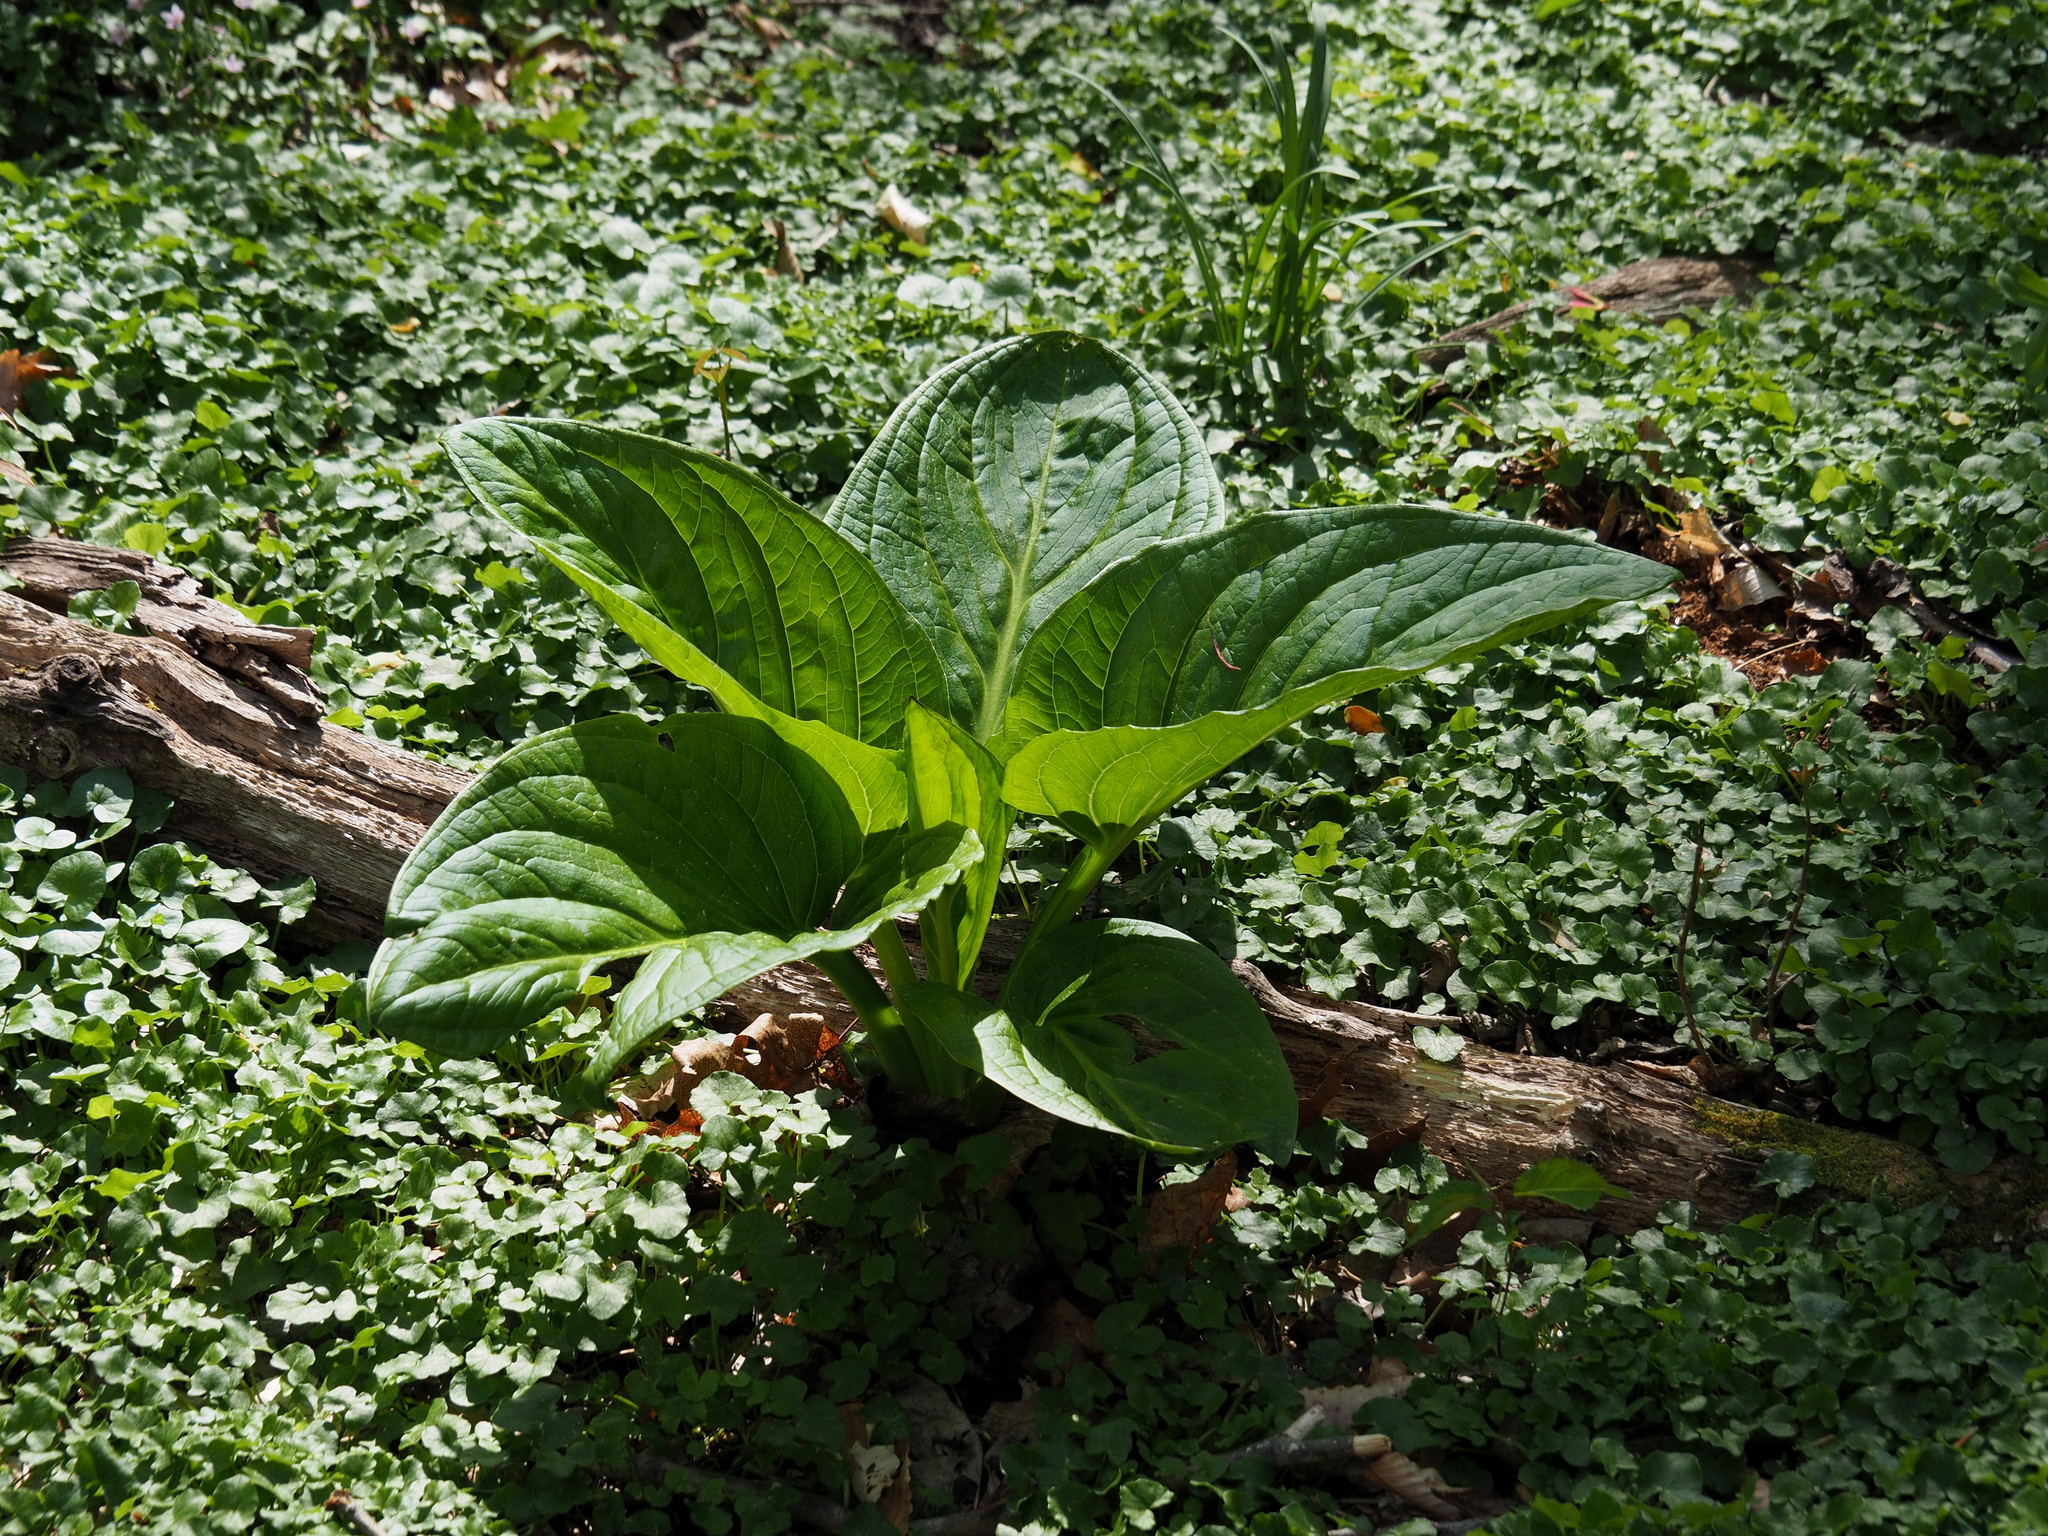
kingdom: Plantae
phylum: Tracheophyta
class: Liliopsida
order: Alismatales
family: Araceae
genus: Symplocarpus
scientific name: Symplocarpus foetidus
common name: Eastern skunk cabbage
